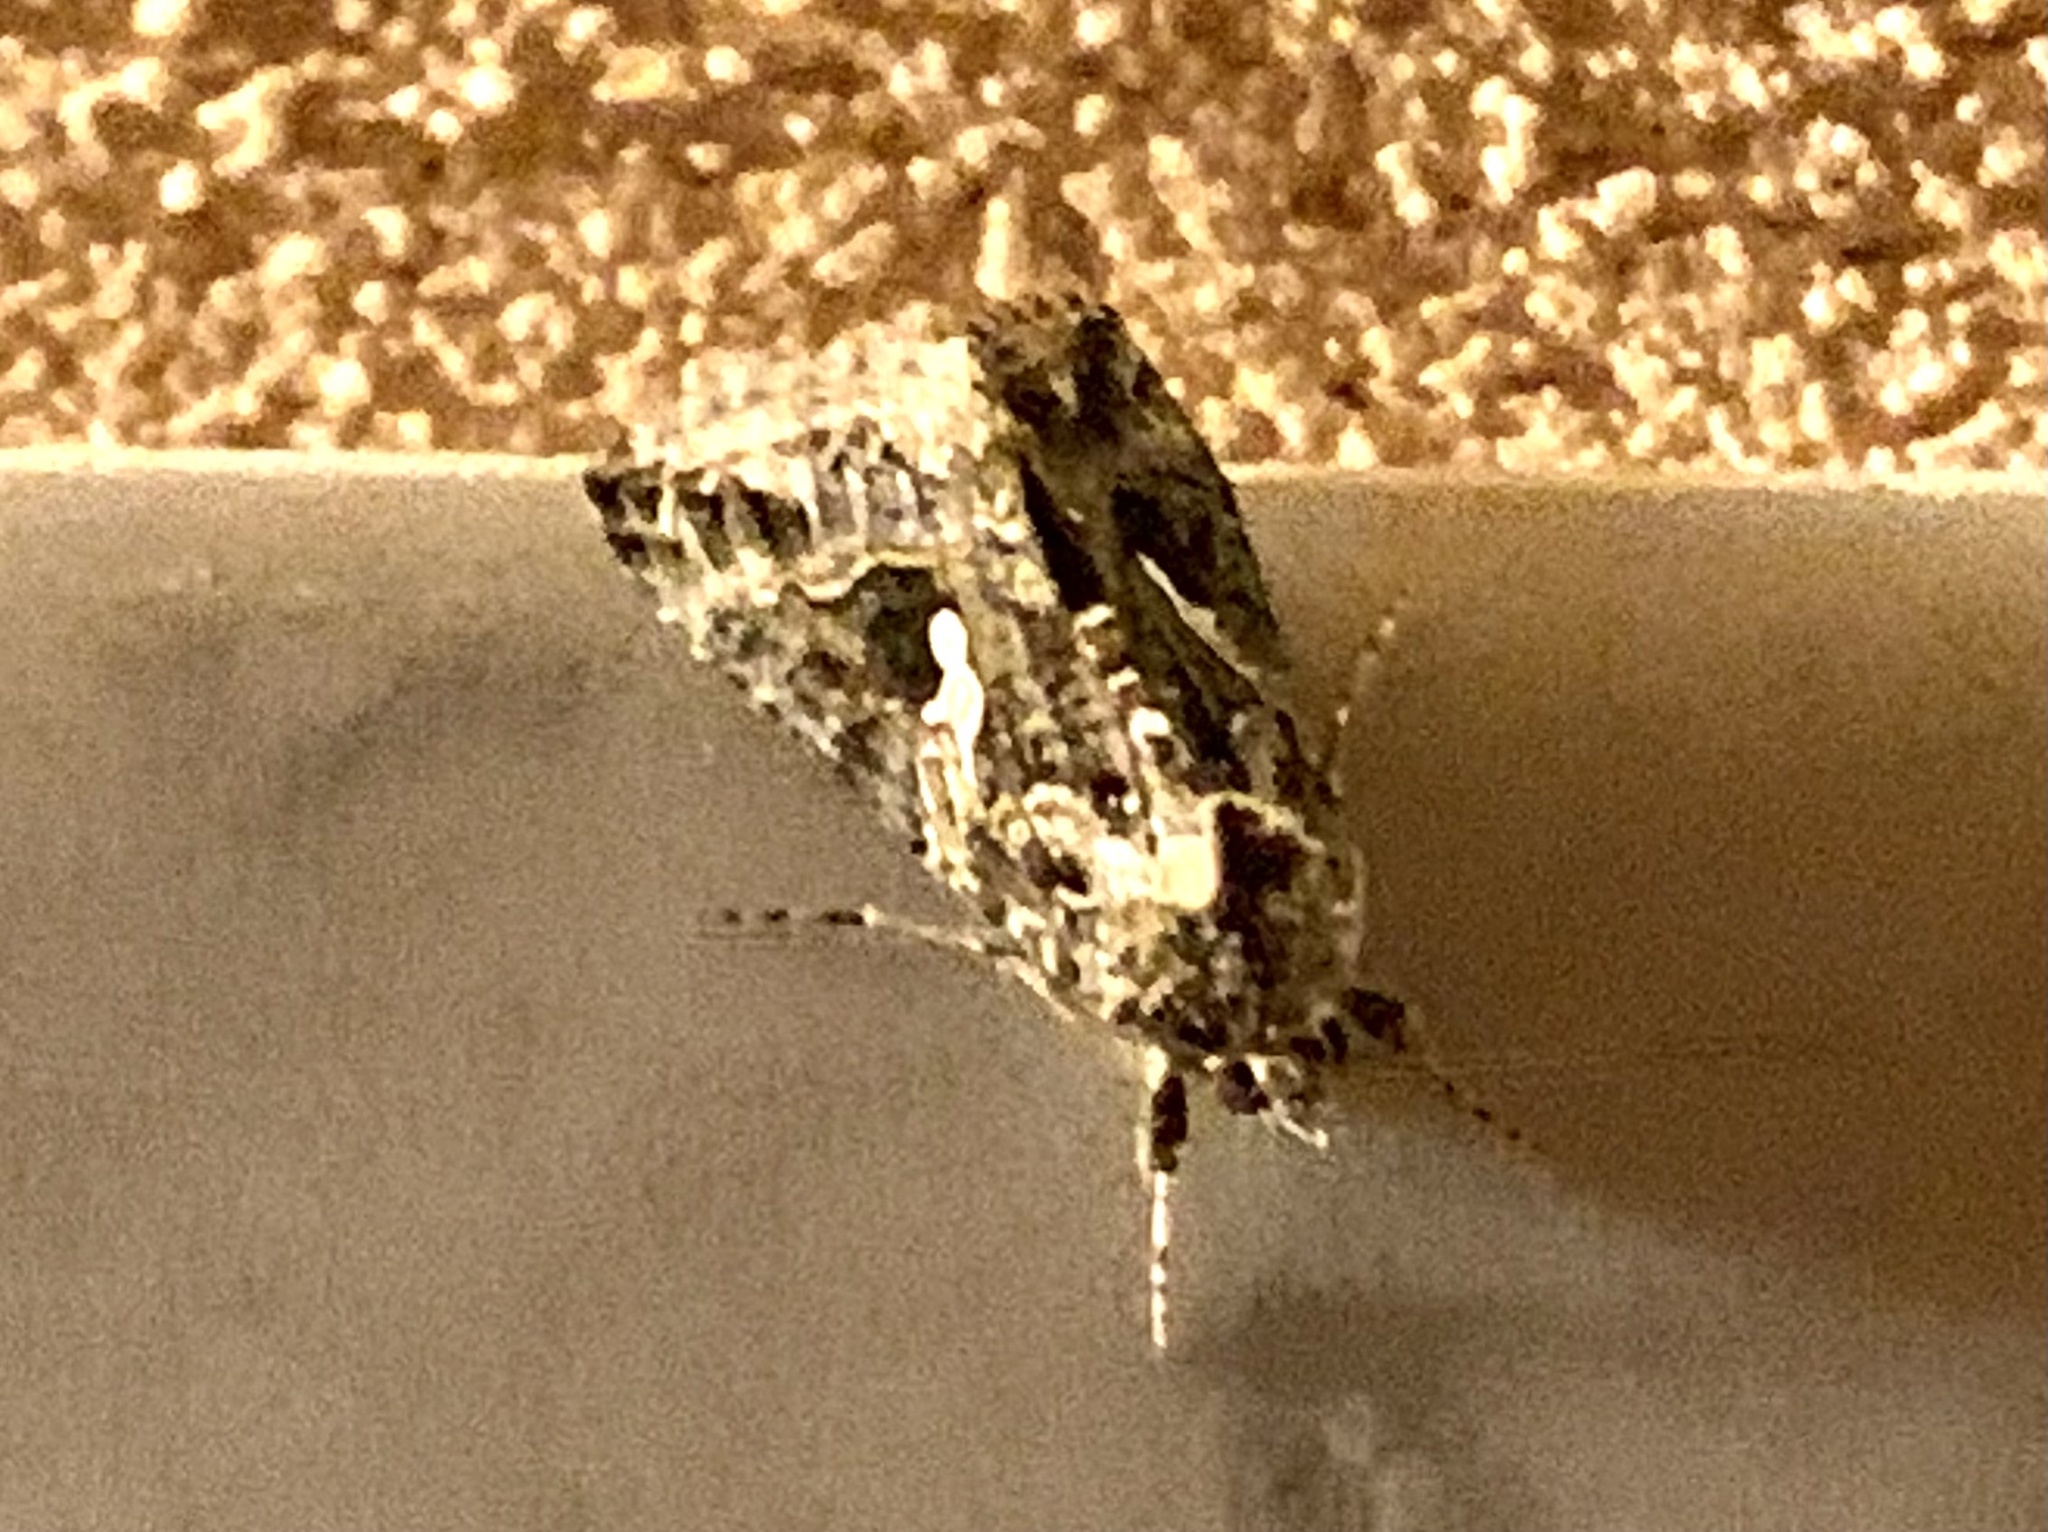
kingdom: Animalia
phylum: Arthropoda
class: Insecta
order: Lepidoptera
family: Noctuidae
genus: Trichoplusia
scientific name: Trichoplusia ni
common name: Ni moth
